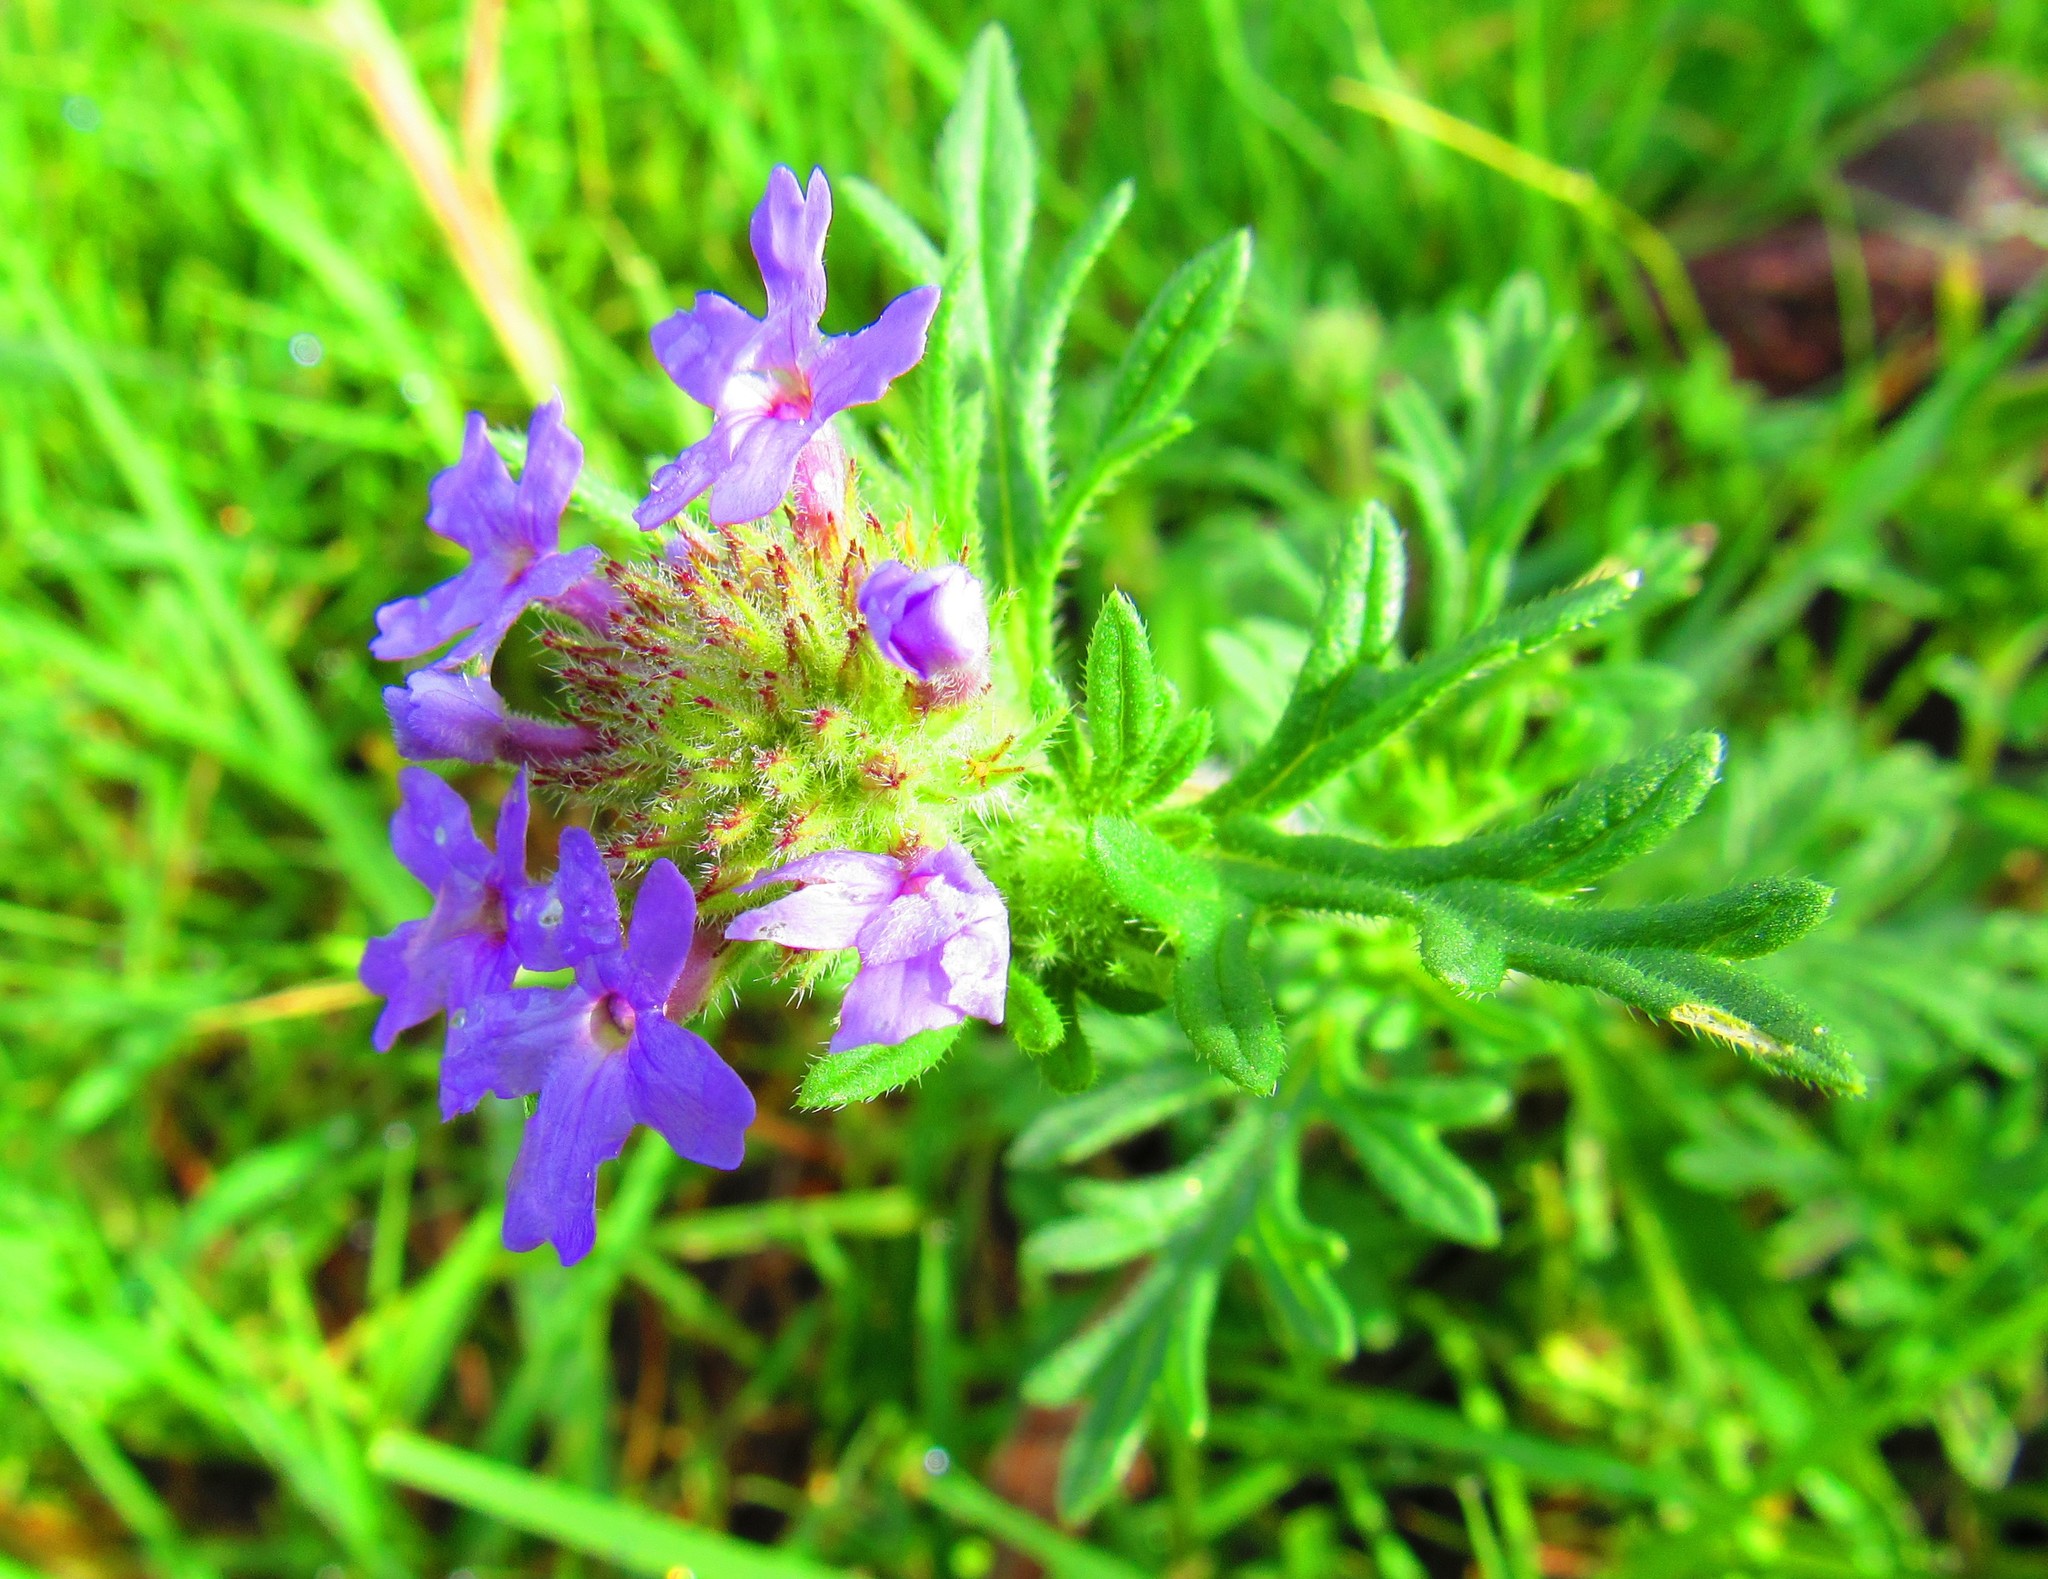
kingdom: Plantae
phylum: Tracheophyta
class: Magnoliopsida
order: Lamiales
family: Verbenaceae
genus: Verbena
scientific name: Verbena bipinnatifida
